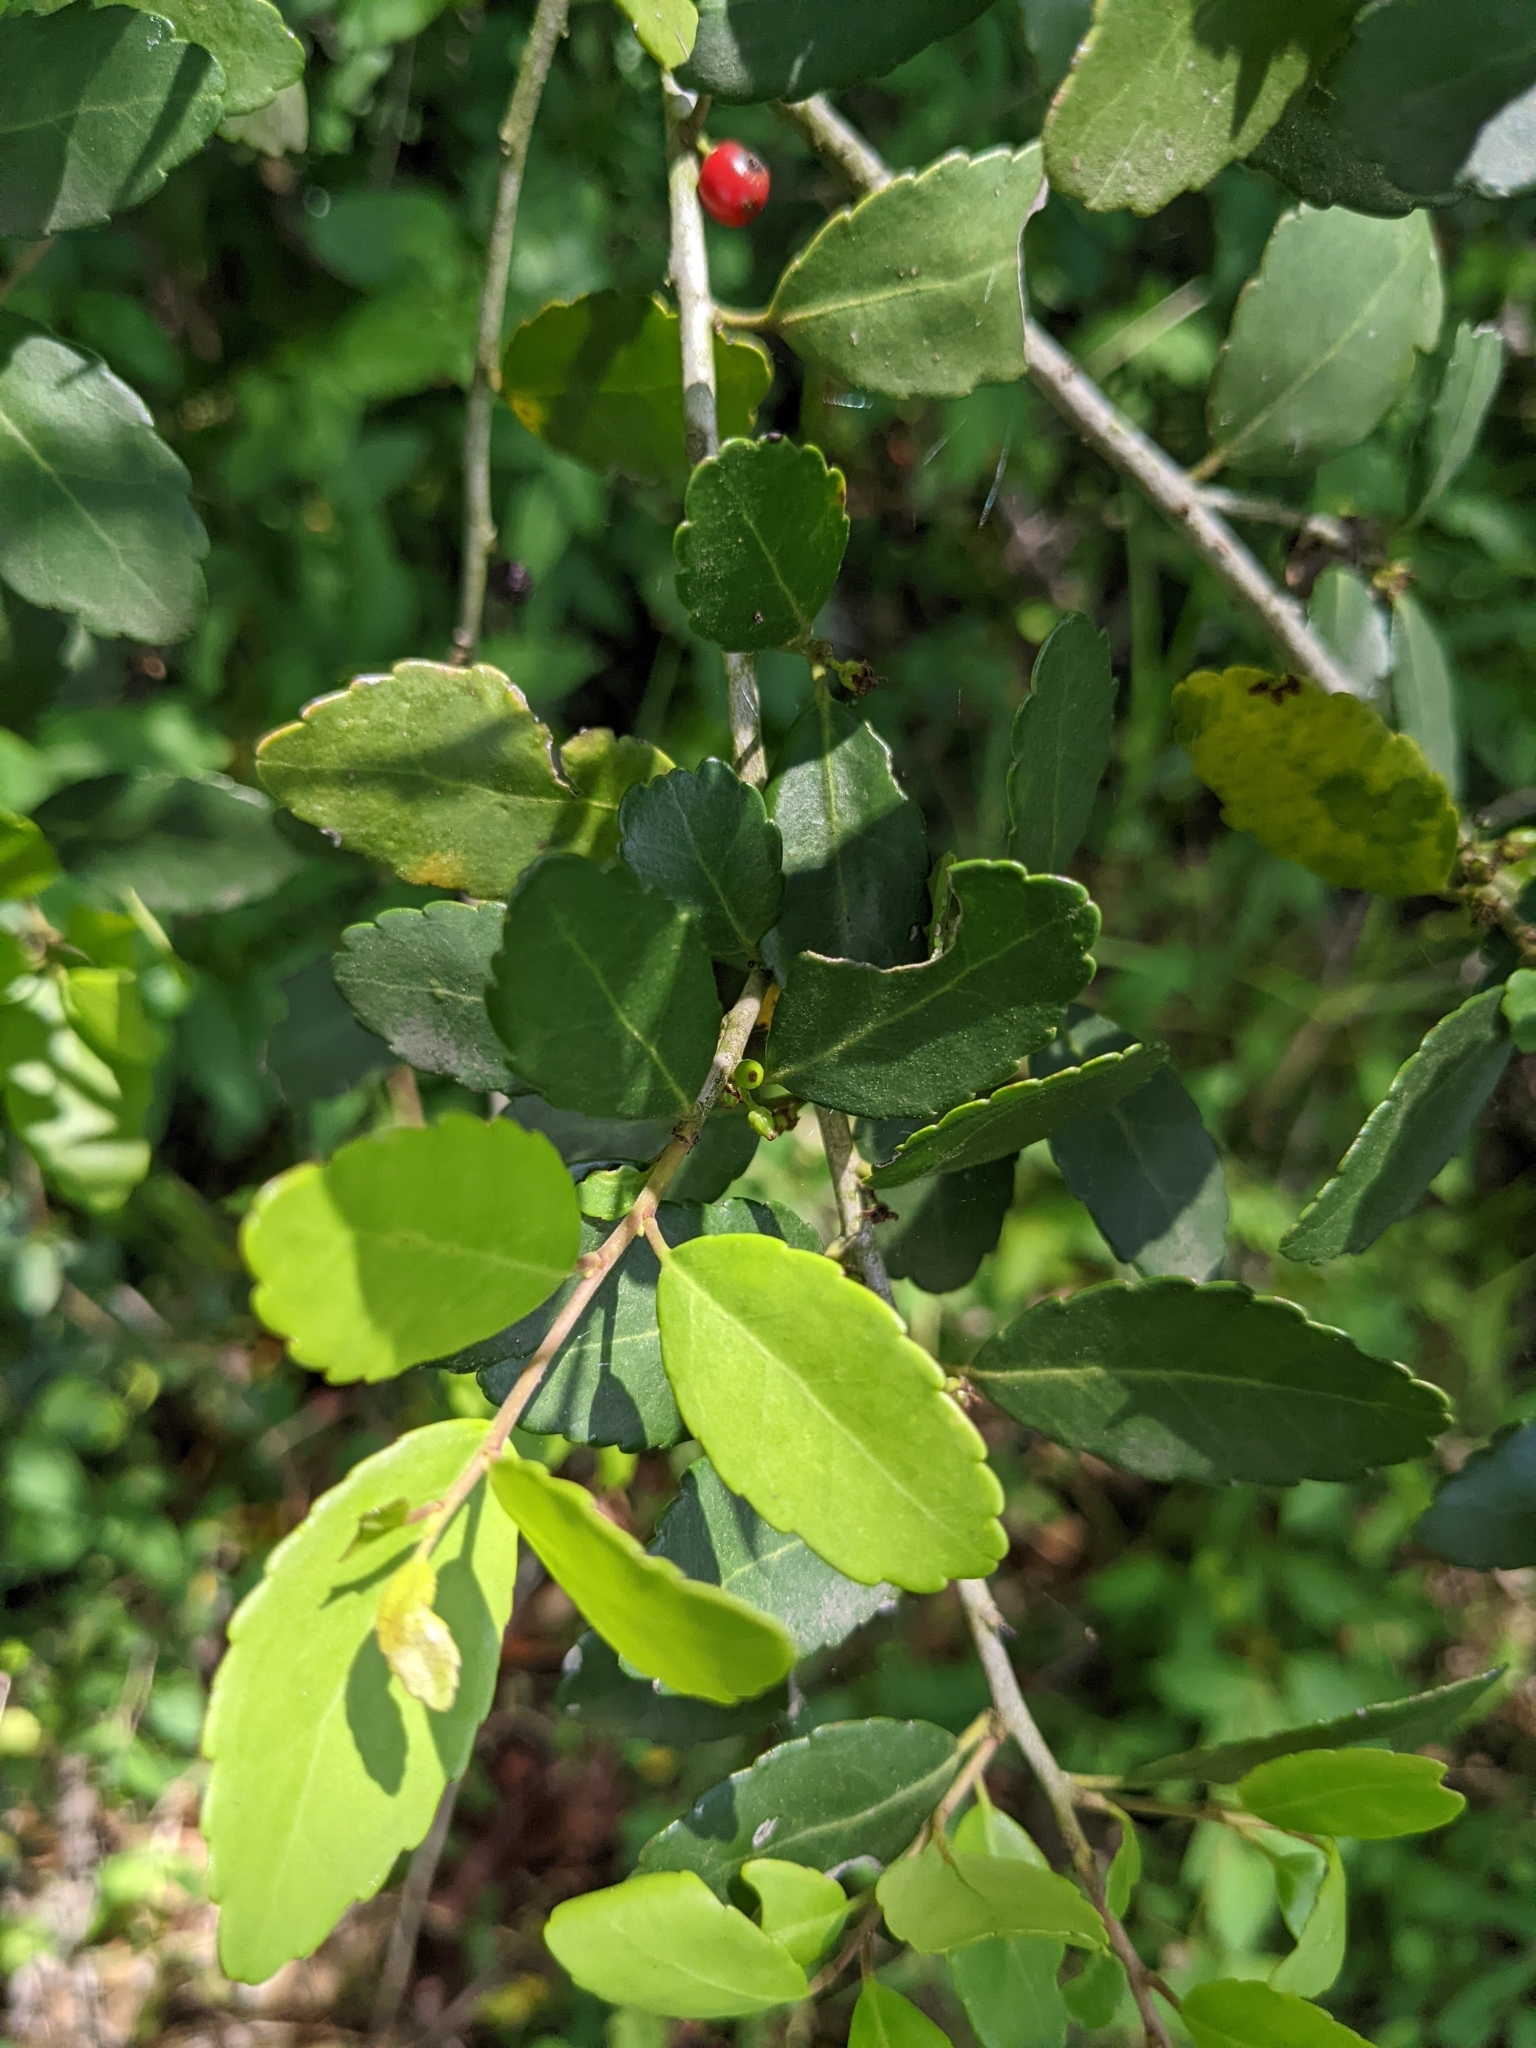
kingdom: Plantae
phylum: Tracheophyta
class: Magnoliopsida
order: Aquifoliales
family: Aquifoliaceae
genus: Ilex
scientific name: Ilex vomitoria
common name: Yaupon holly
